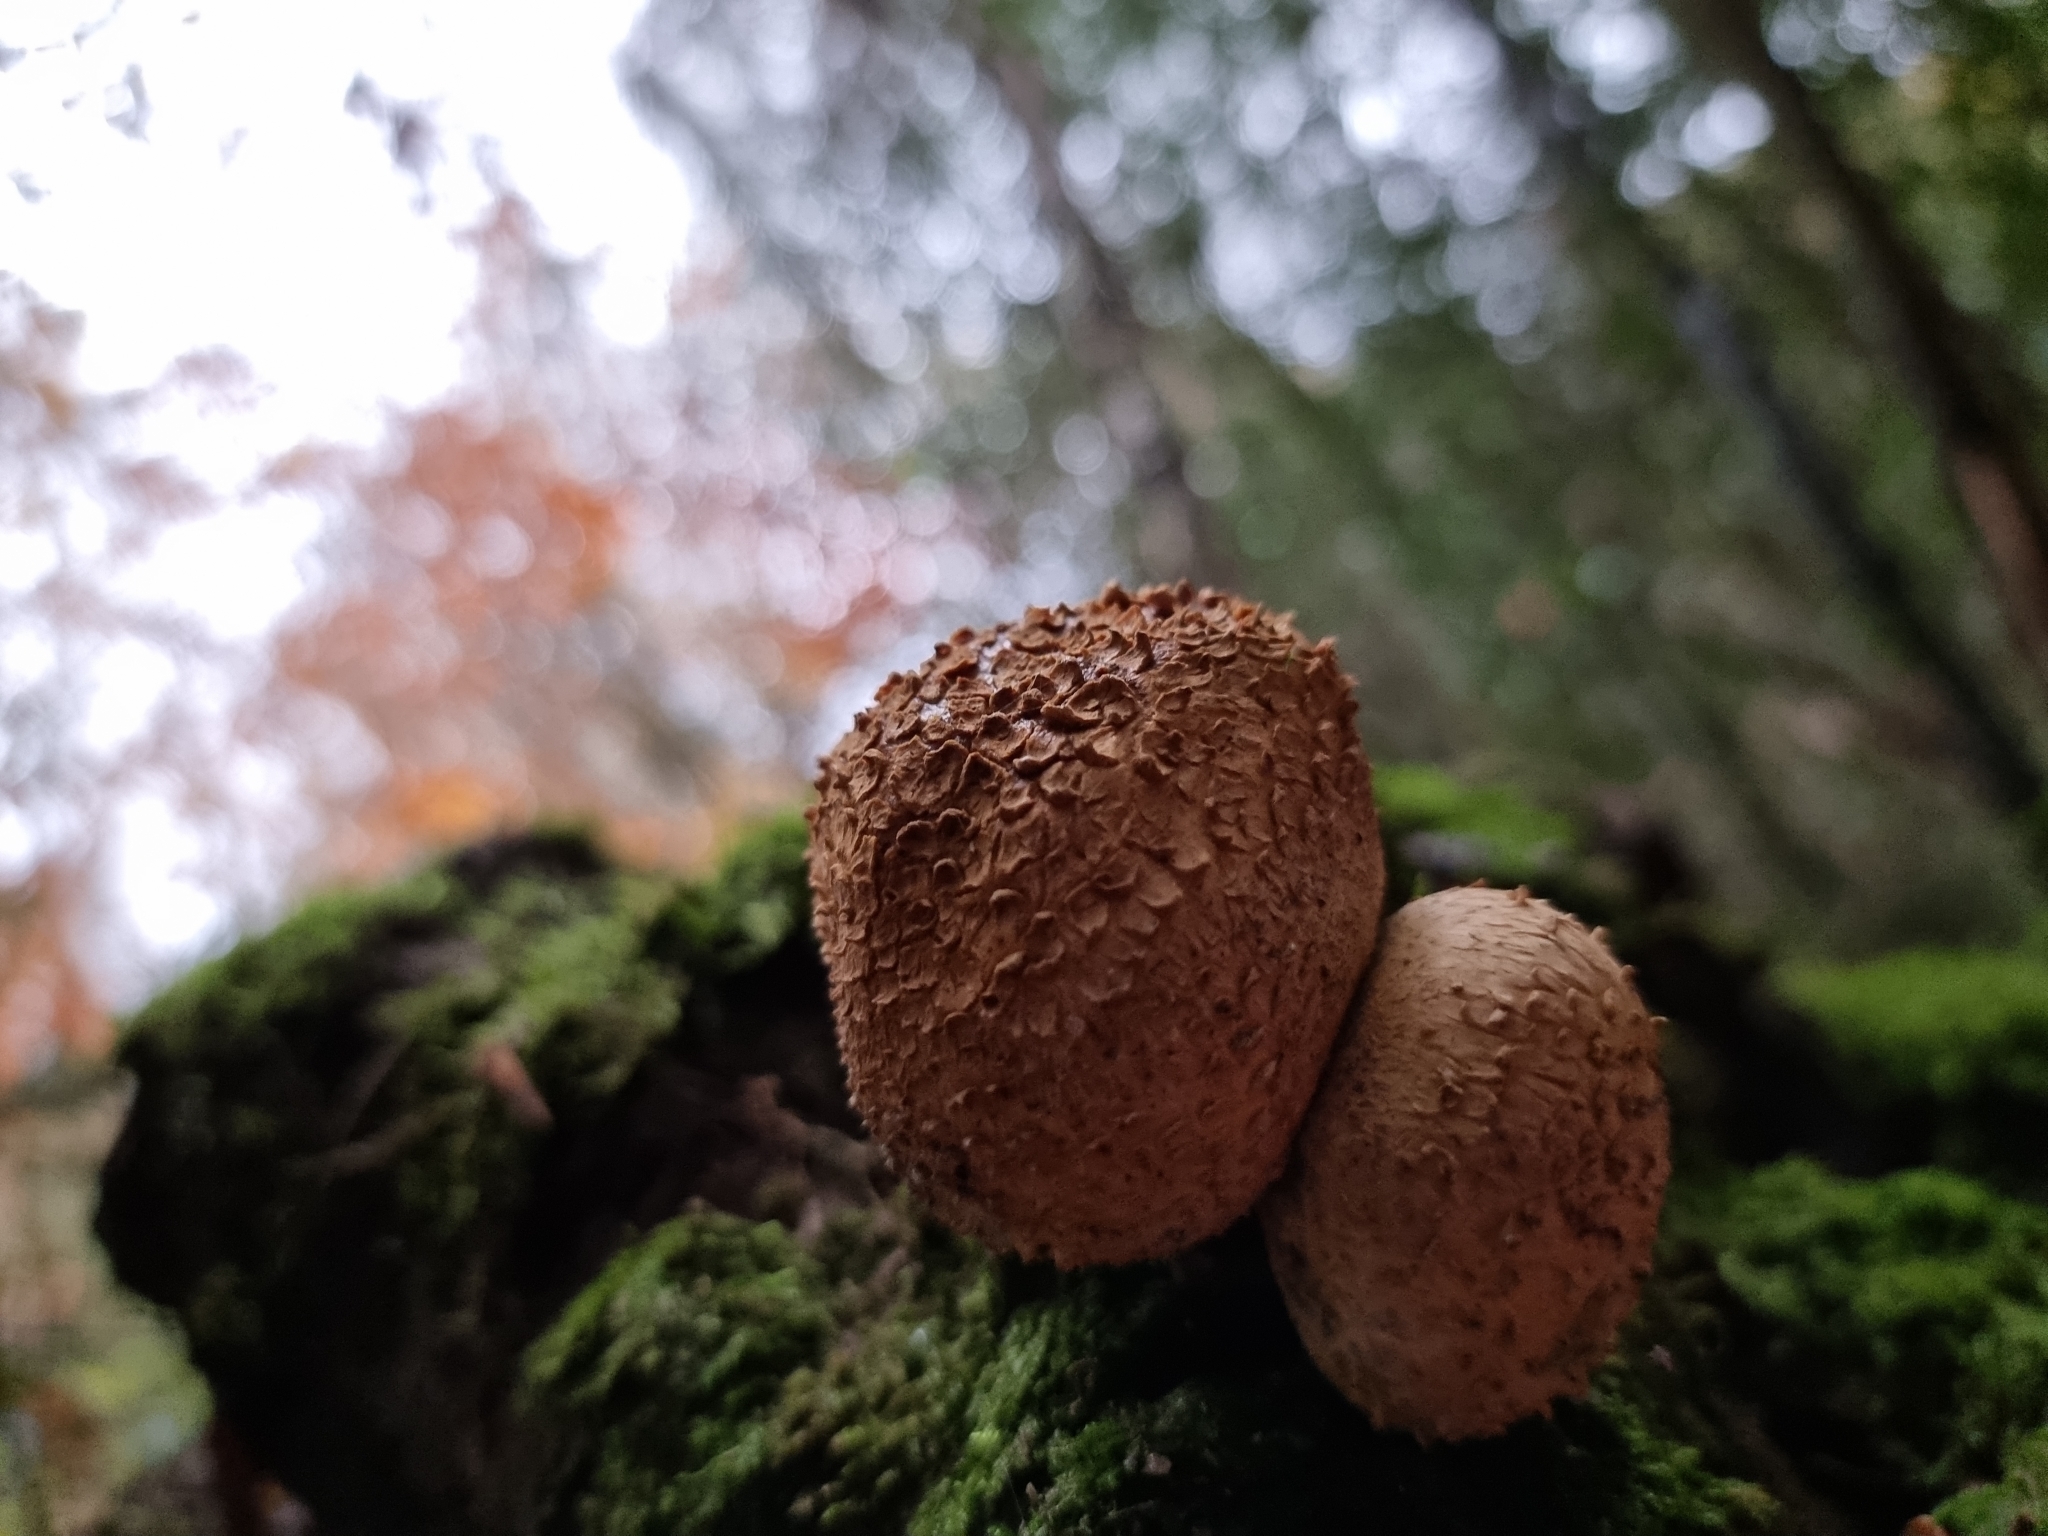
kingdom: Fungi
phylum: Basidiomycota
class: Agaricomycetes
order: Boletales
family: Sclerodermataceae
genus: Scleroderma
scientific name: Scleroderma citrinum
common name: Common earthball
